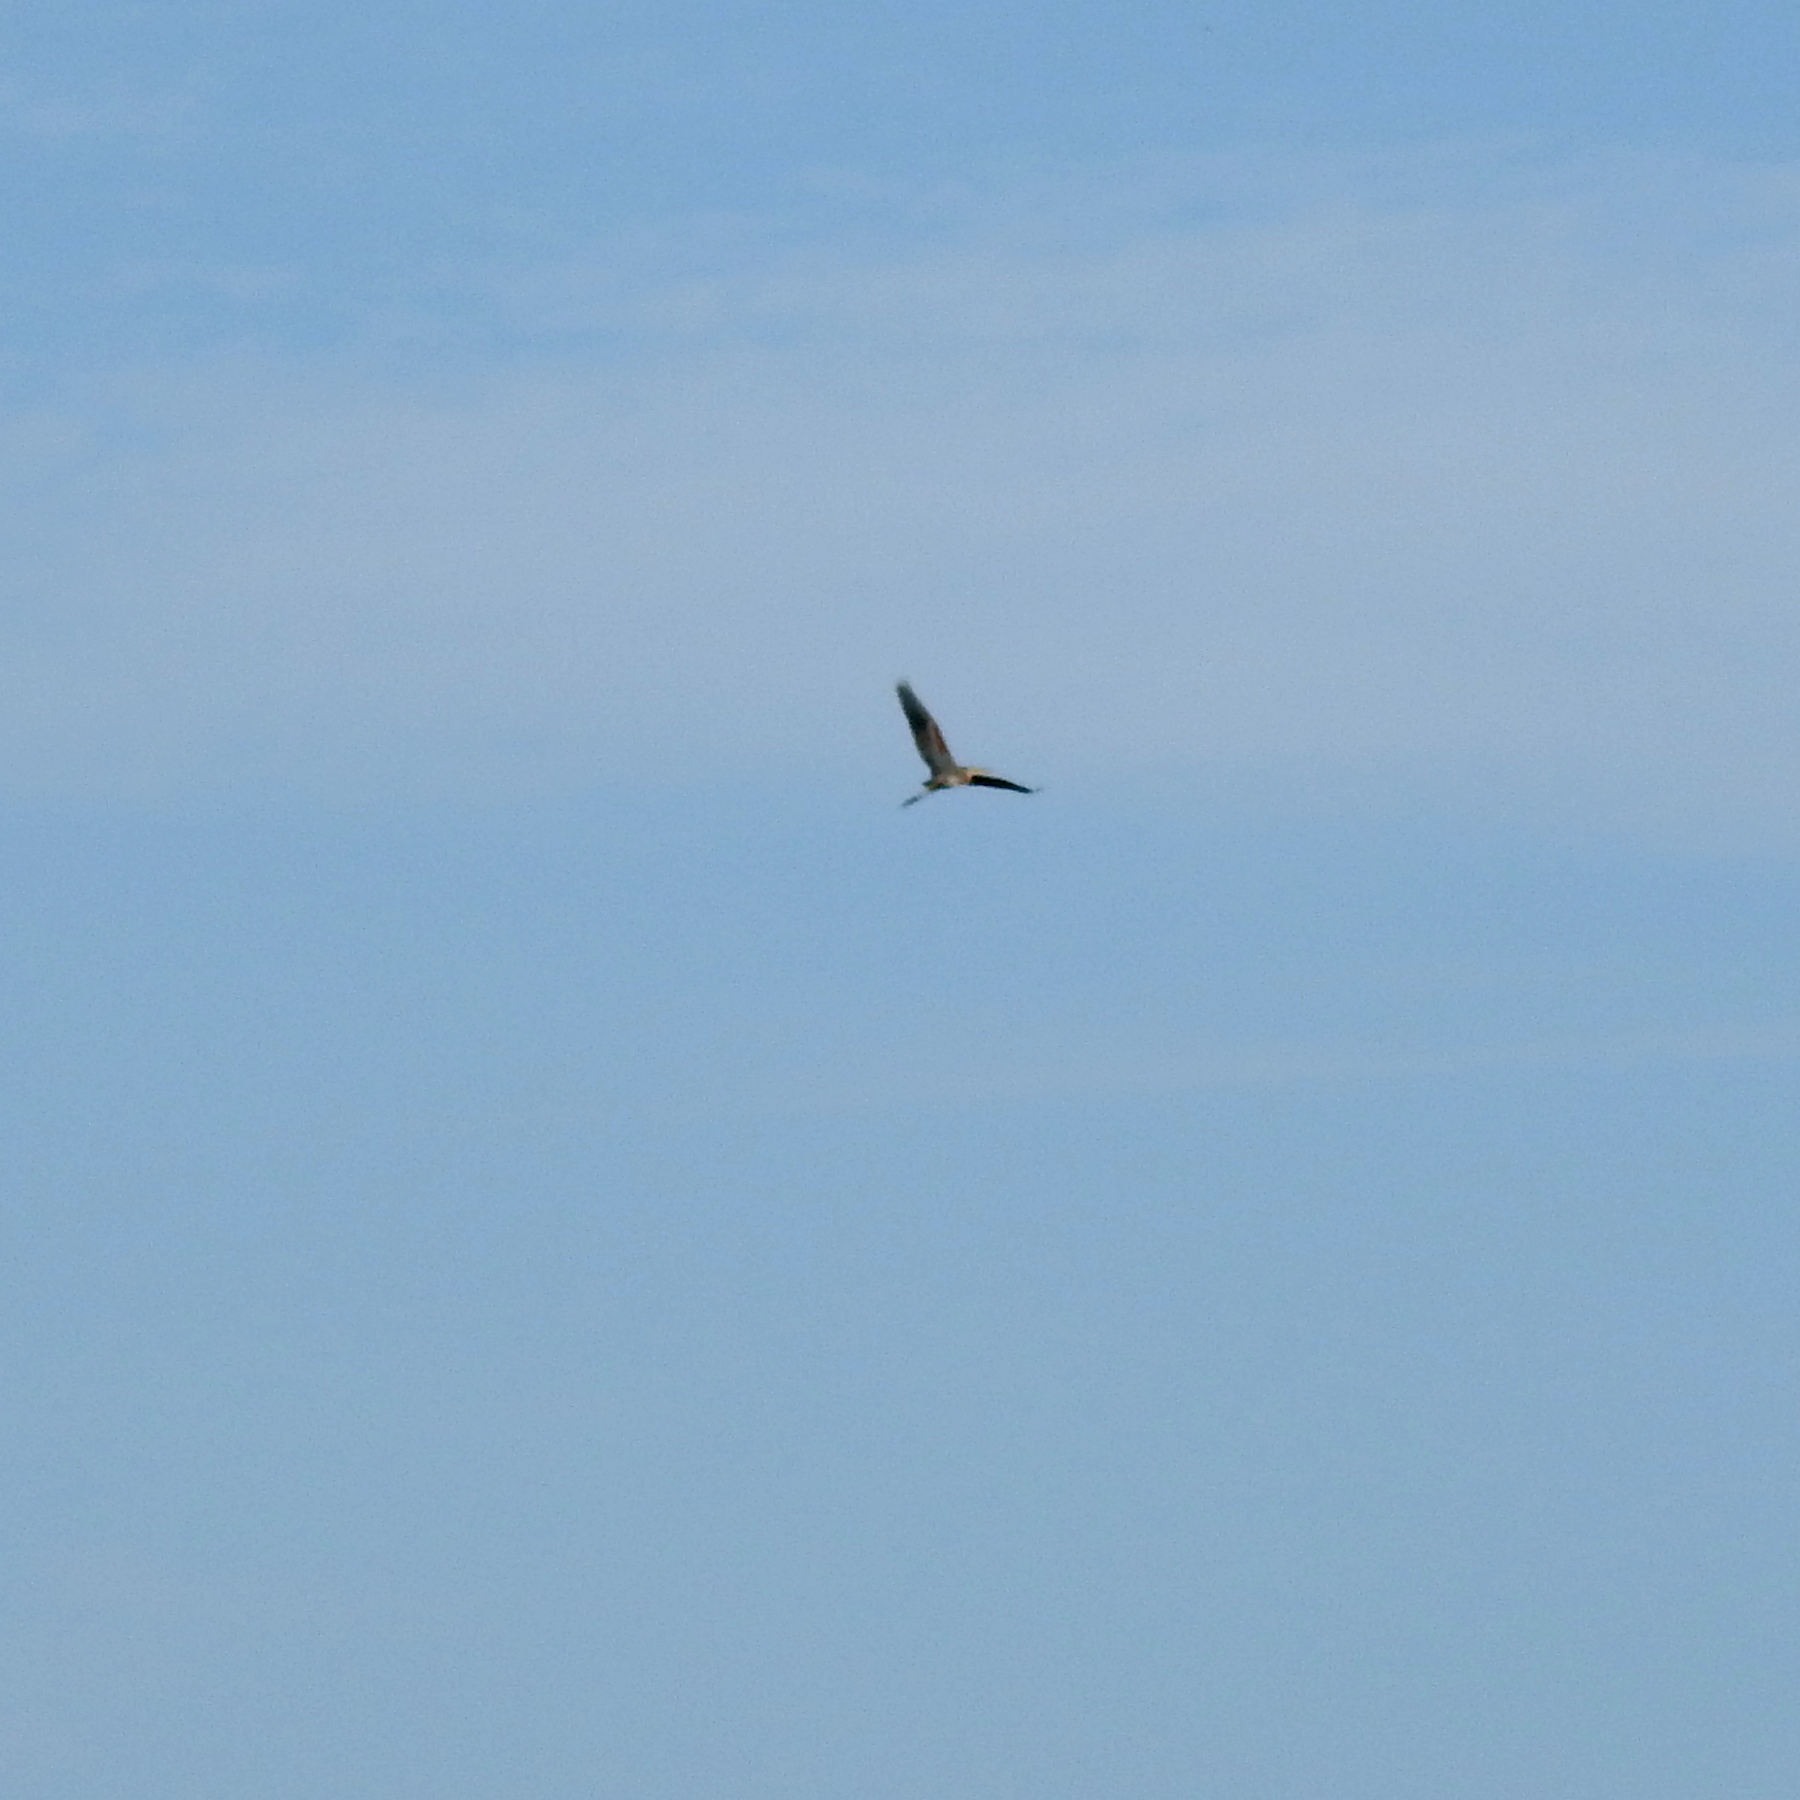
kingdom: Animalia
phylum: Chordata
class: Aves
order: Pelecaniformes
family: Ardeidae
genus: Ardea
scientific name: Ardea purpurea
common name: Purple heron
